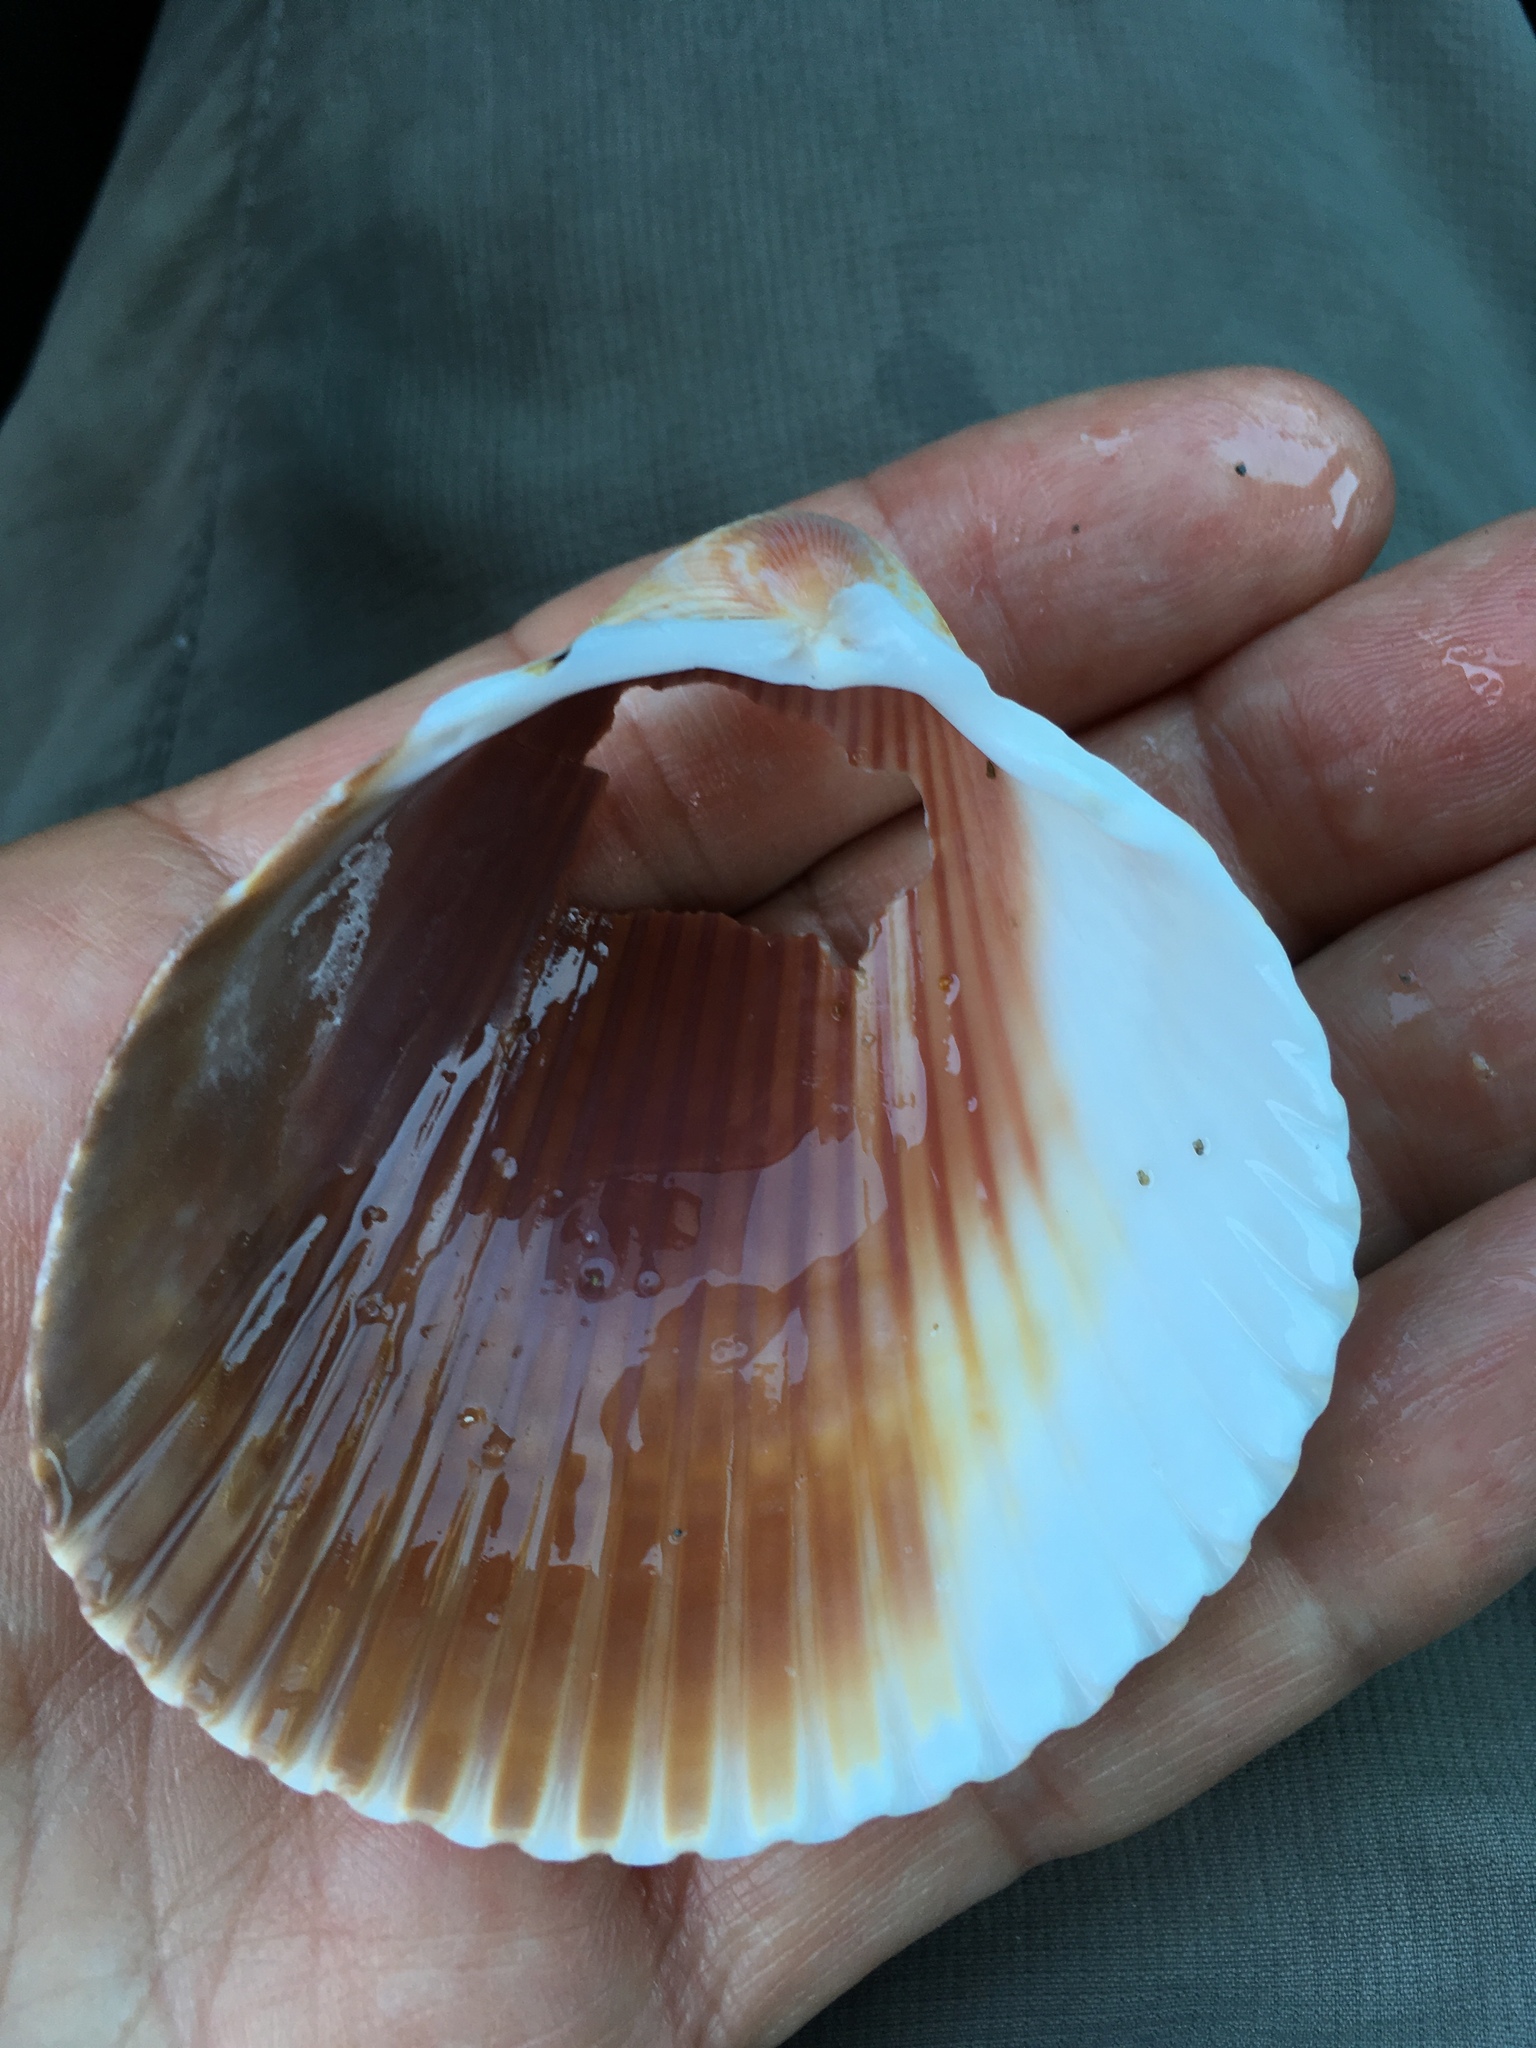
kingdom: Animalia
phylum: Mollusca
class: Bivalvia
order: Cardiida
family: Cardiidae
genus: Dinocardium
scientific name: Dinocardium robustum
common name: Atlantic giant cockle
